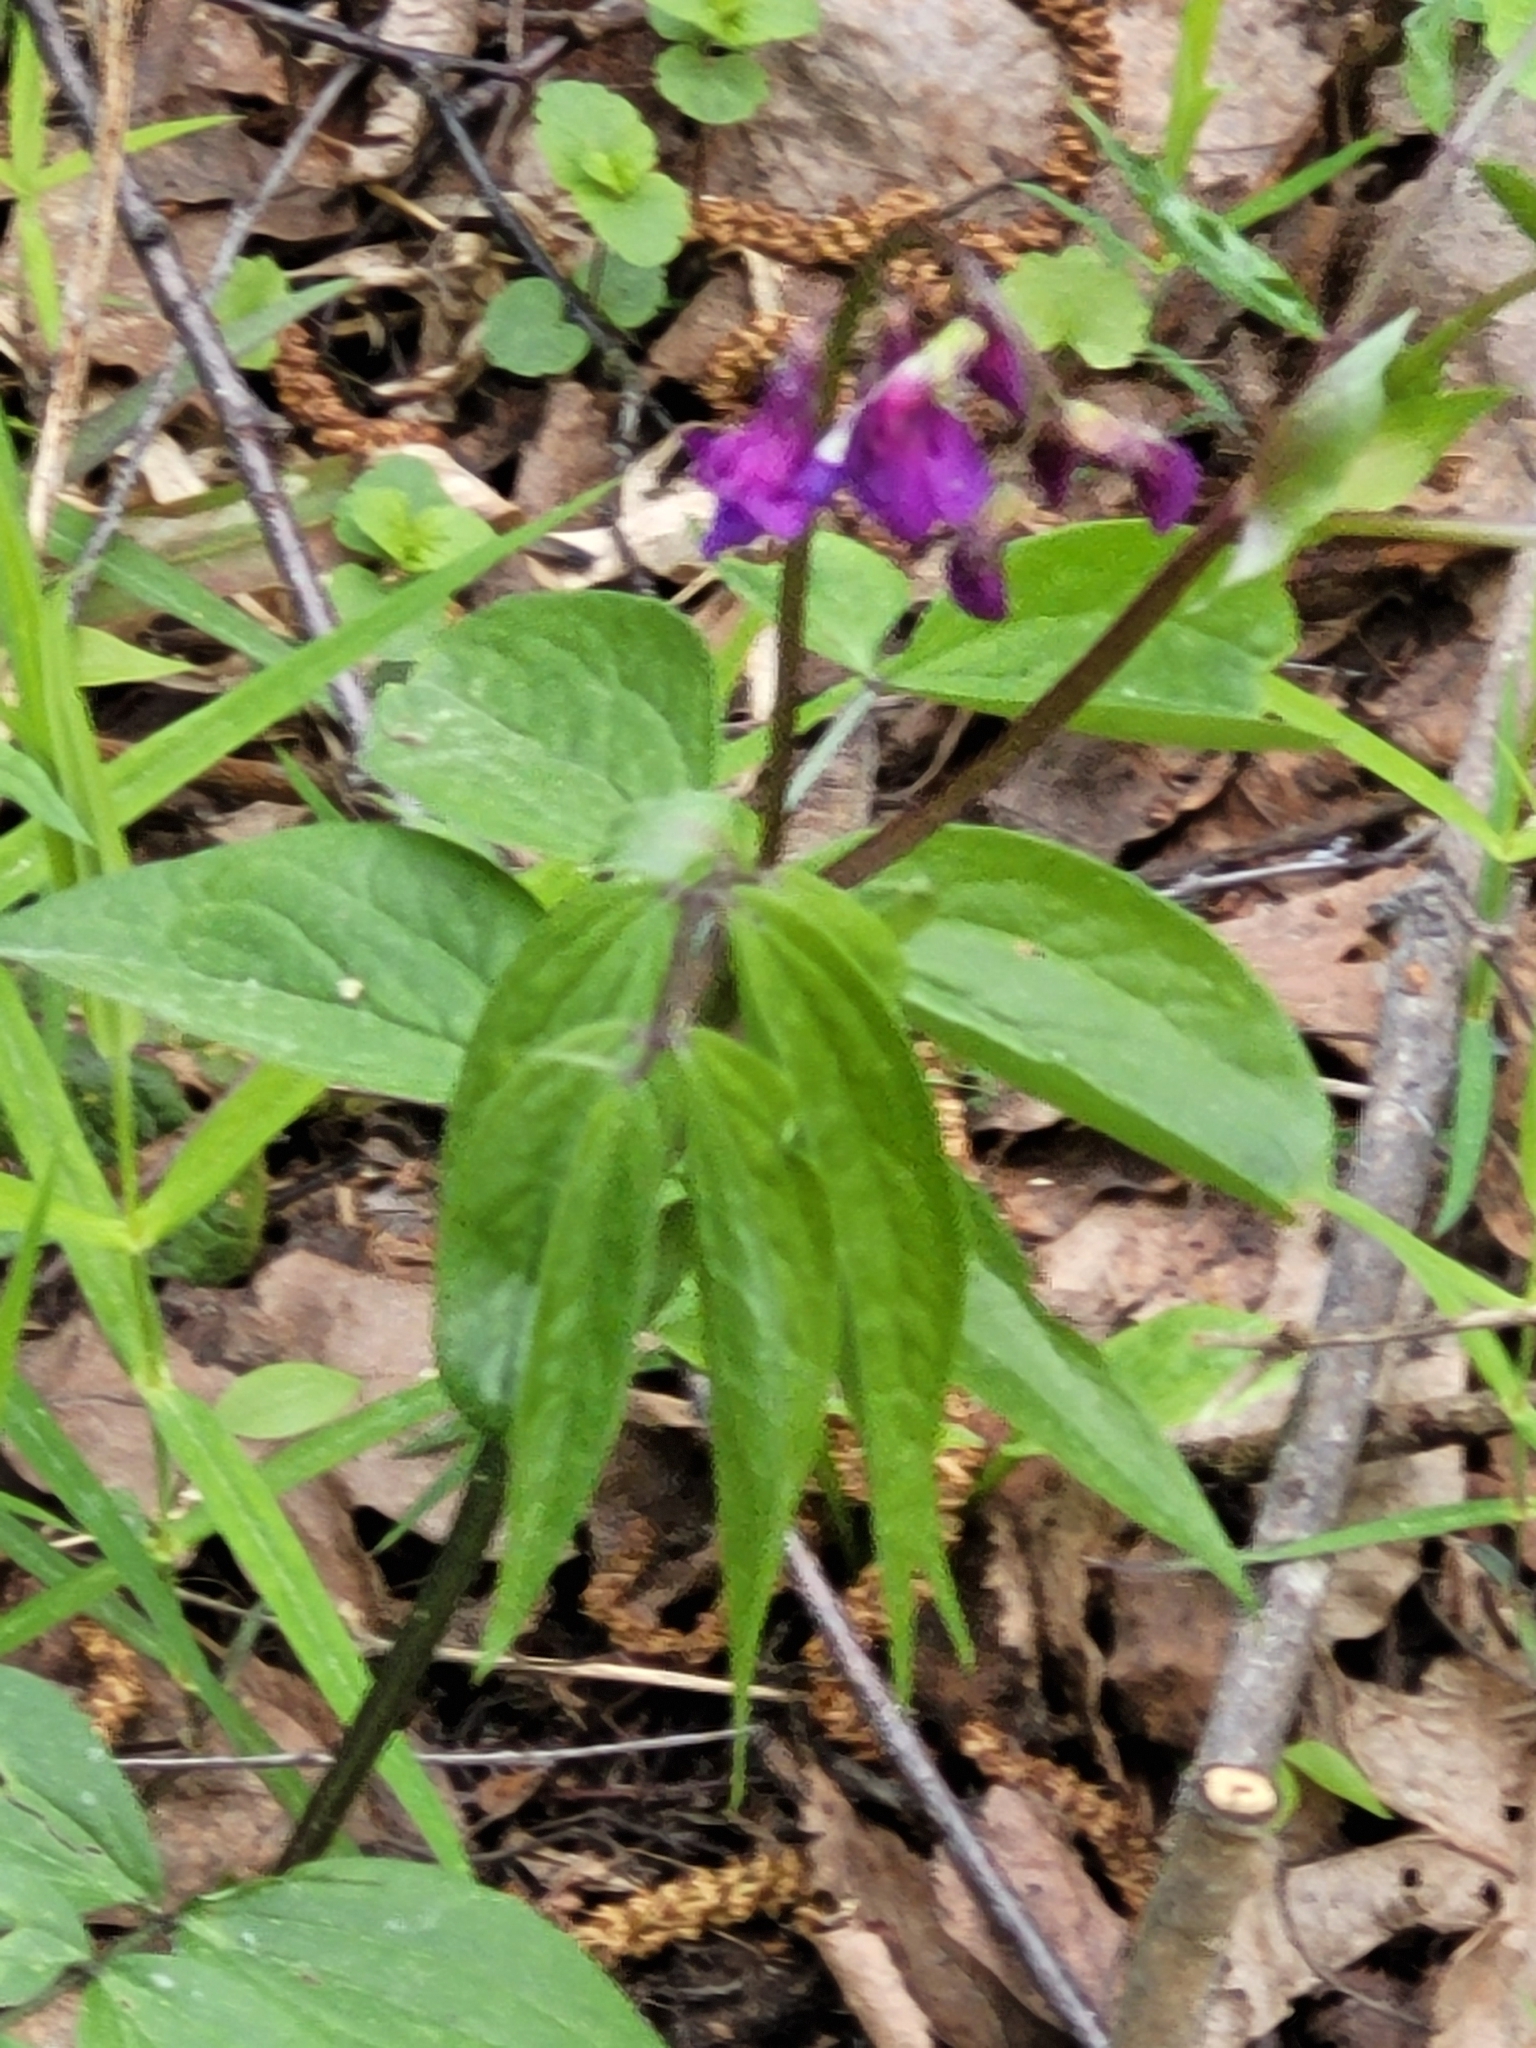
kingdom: Plantae
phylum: Tracheophyta
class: Magnoliopsida
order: Fabales
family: Fabaceae
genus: Lathyrus
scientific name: Lathyrus vernus
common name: Spring pea
